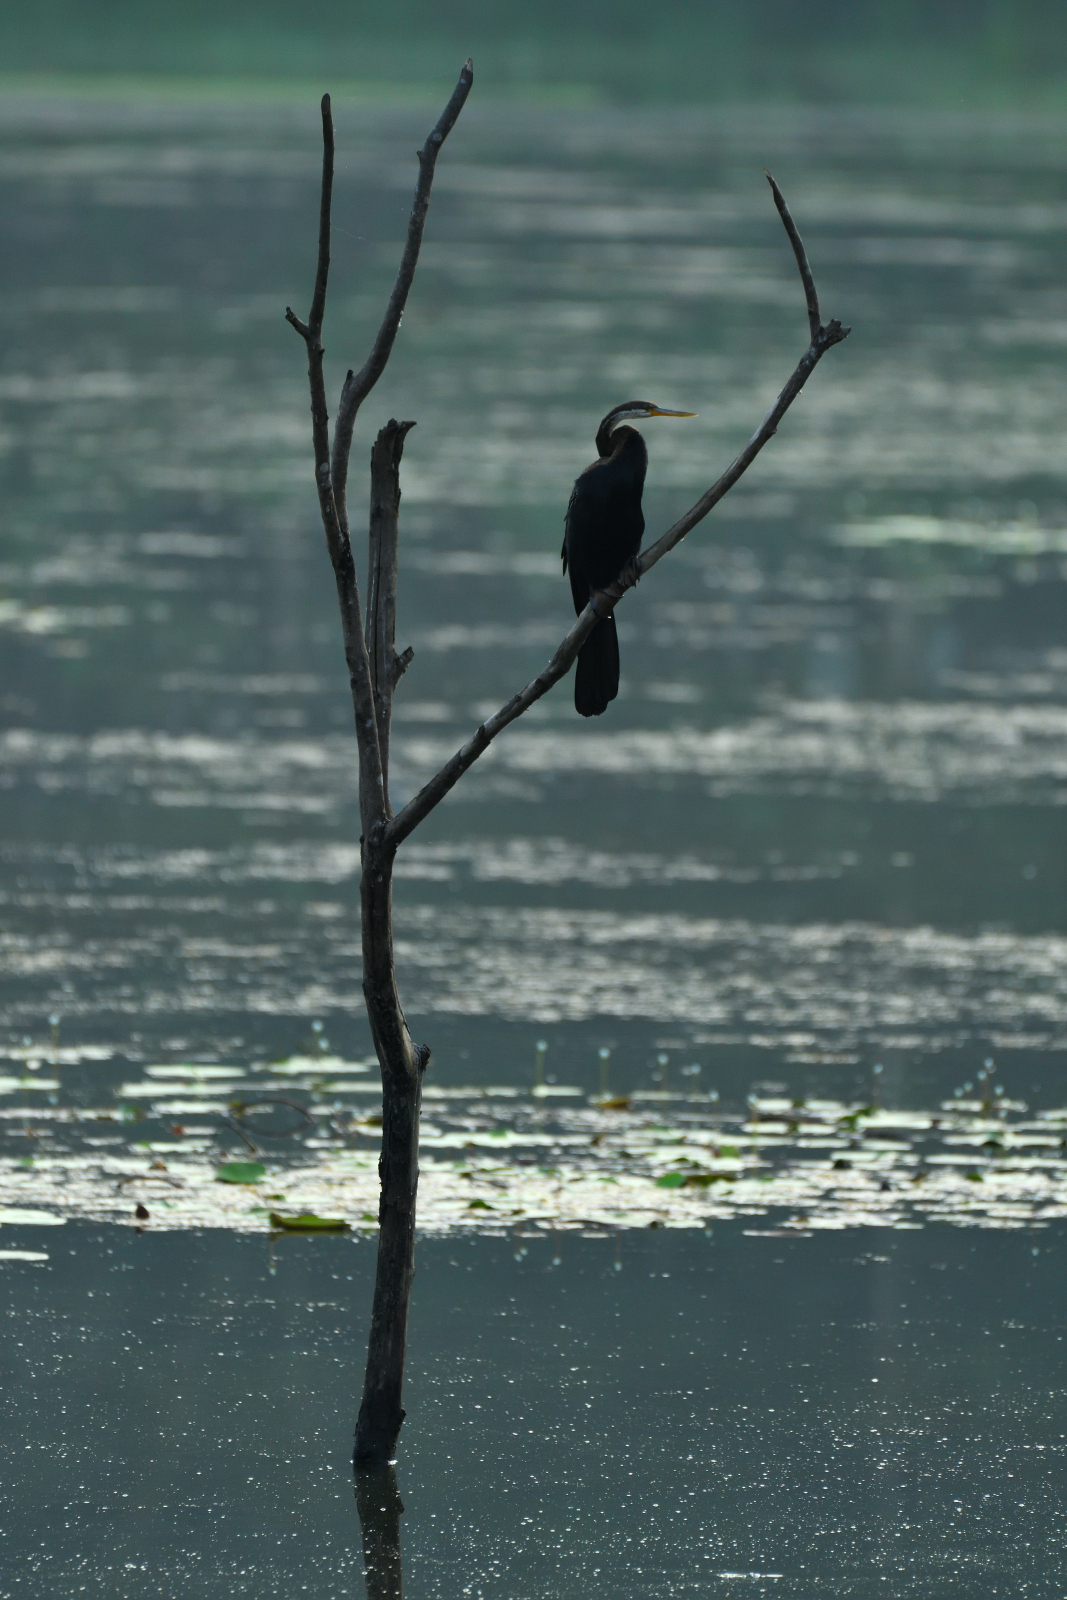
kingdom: Animalia
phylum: Chordata
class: Aves
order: Suliformes
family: Anhingidae
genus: Anhinga
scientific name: Anhinga melanogaster
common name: Oriental darter
